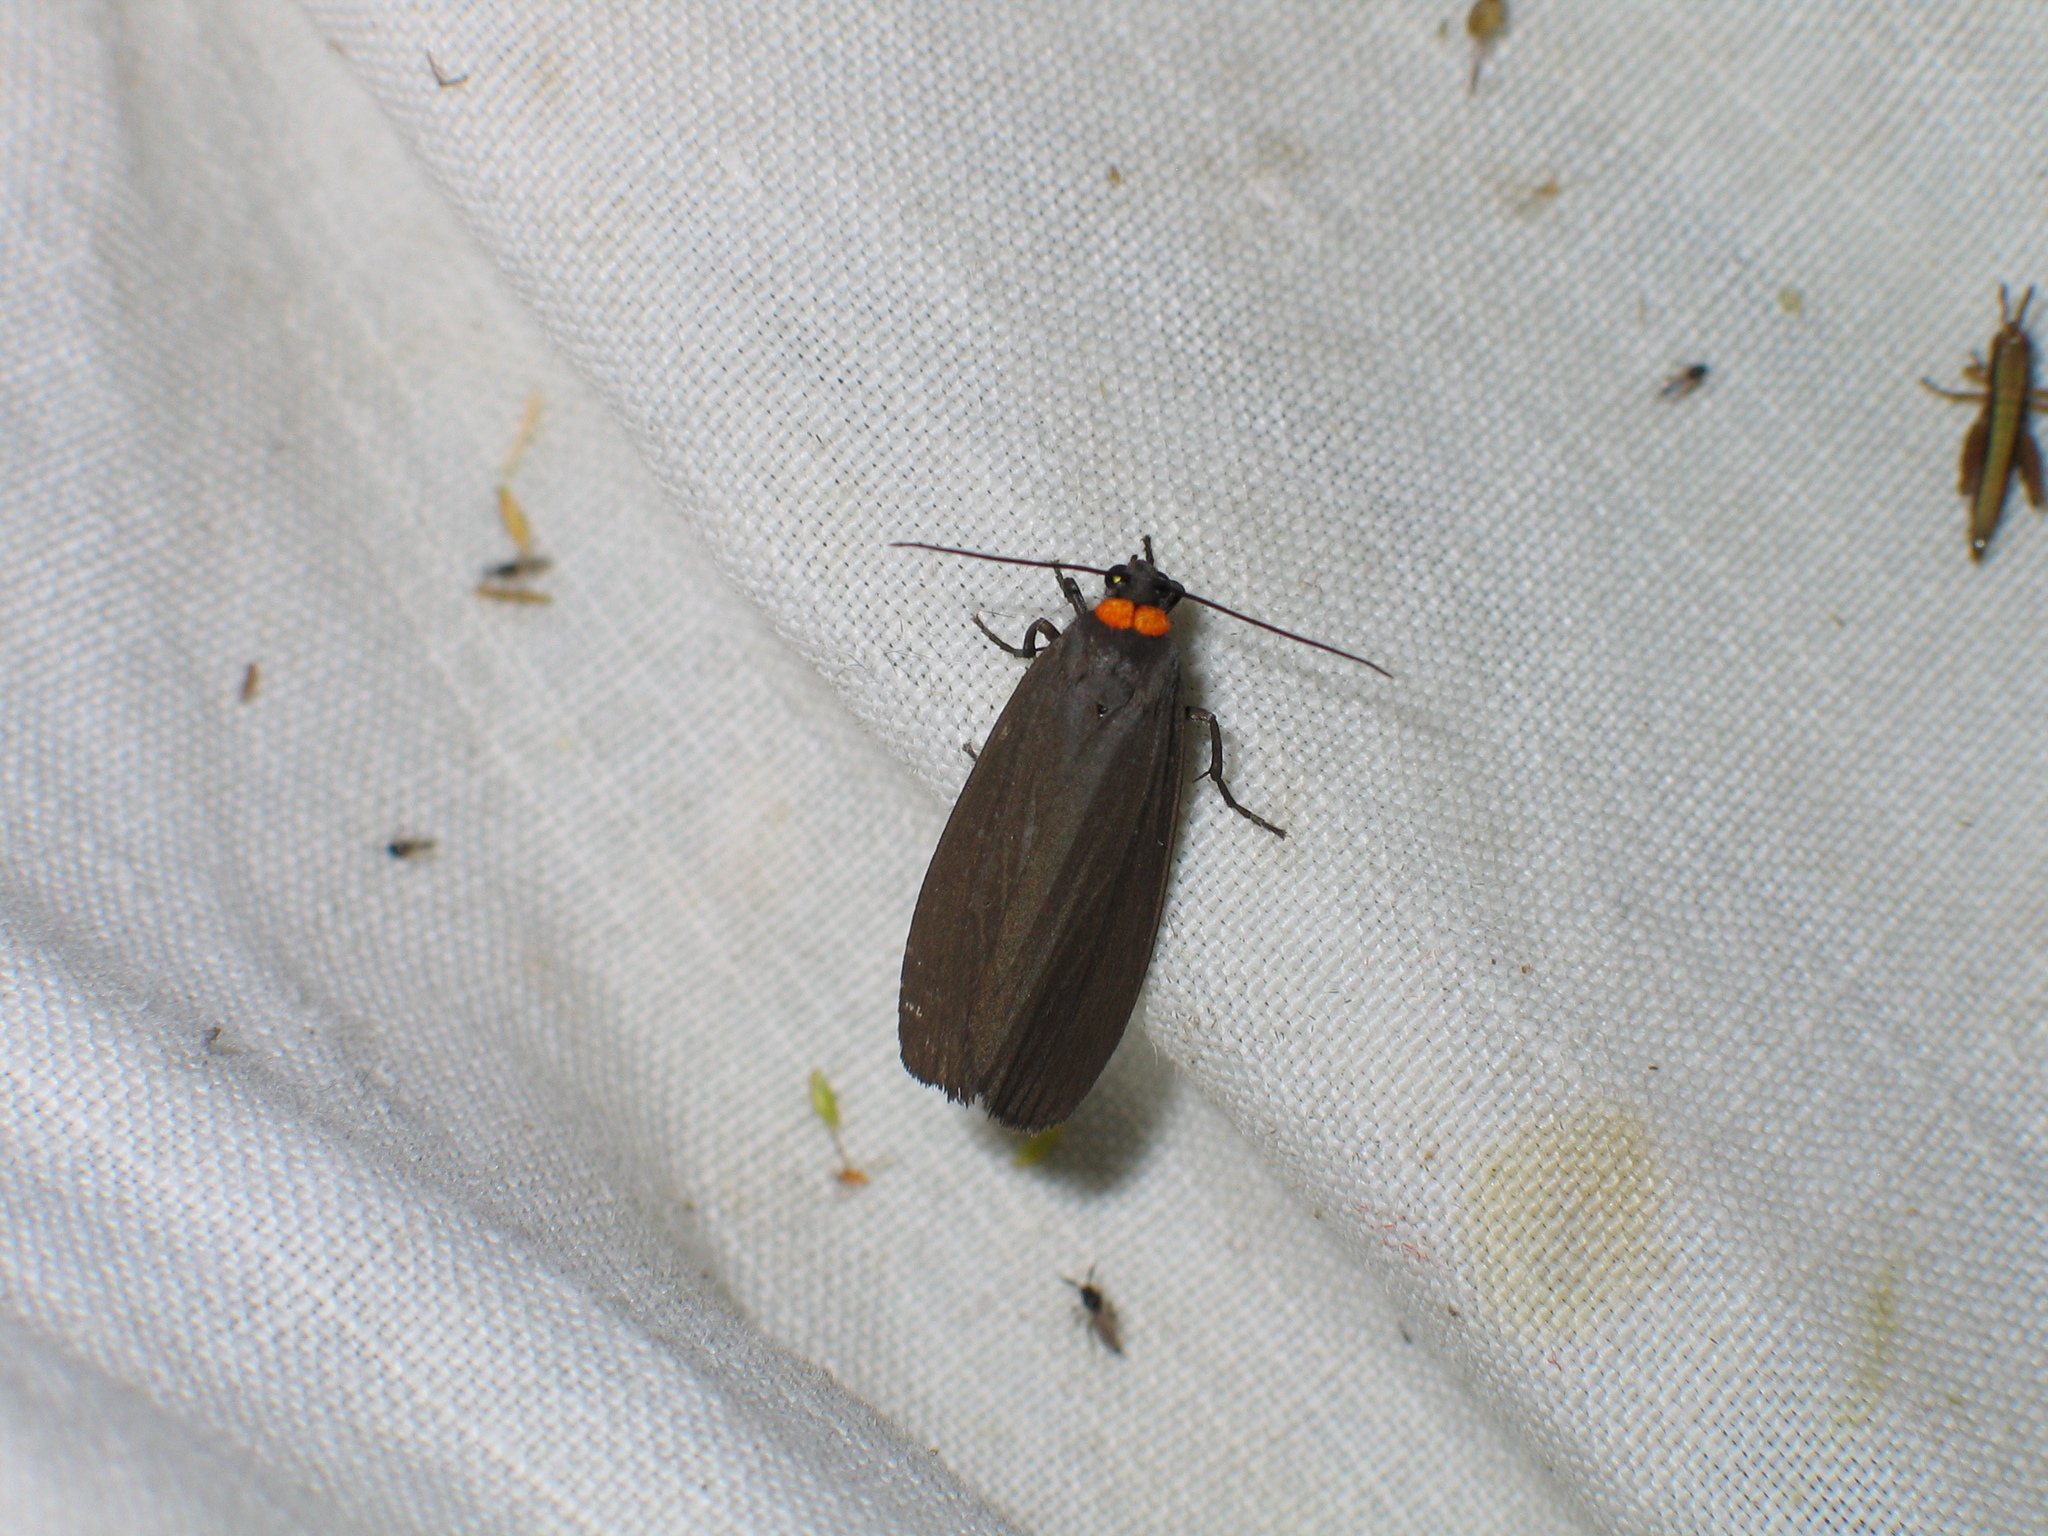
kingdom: Animalia
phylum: Arthropoda
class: Insecta
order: Lepidoptera
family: Erebidae
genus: Atolmis
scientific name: Atolmis rubricollis
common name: Red-necked footman
